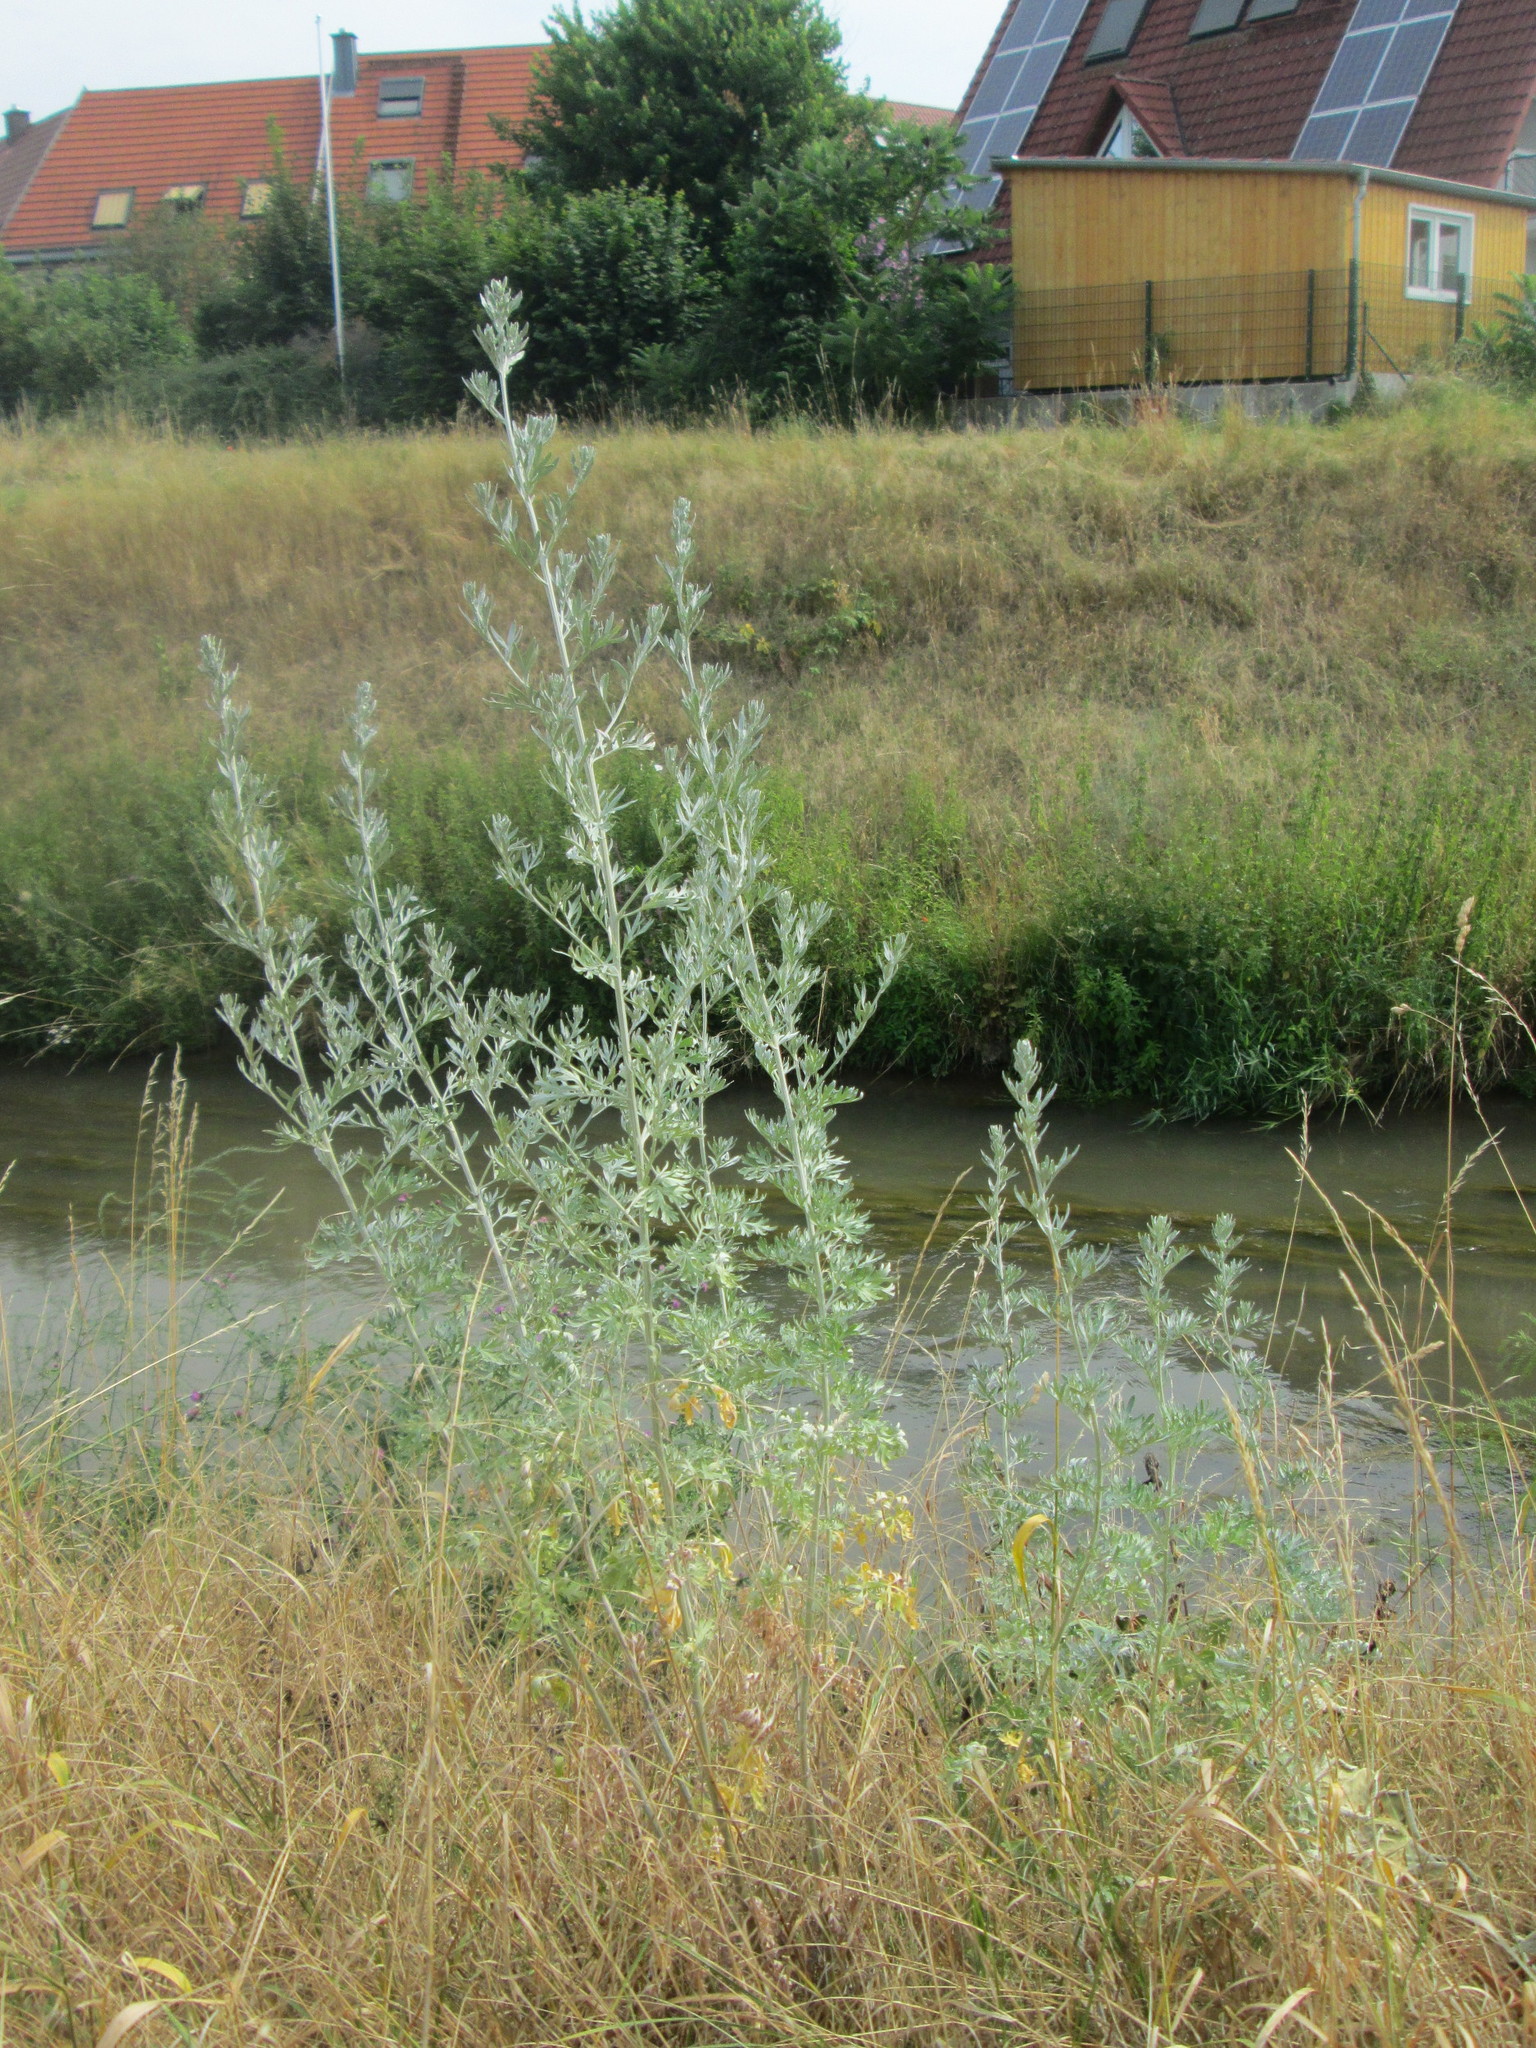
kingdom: Plantae
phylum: Tracheophyta
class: Magnoliopsida
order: Asterales
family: Asteraceae
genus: Artemisia
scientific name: Artemisia absinthium
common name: Wormwood
